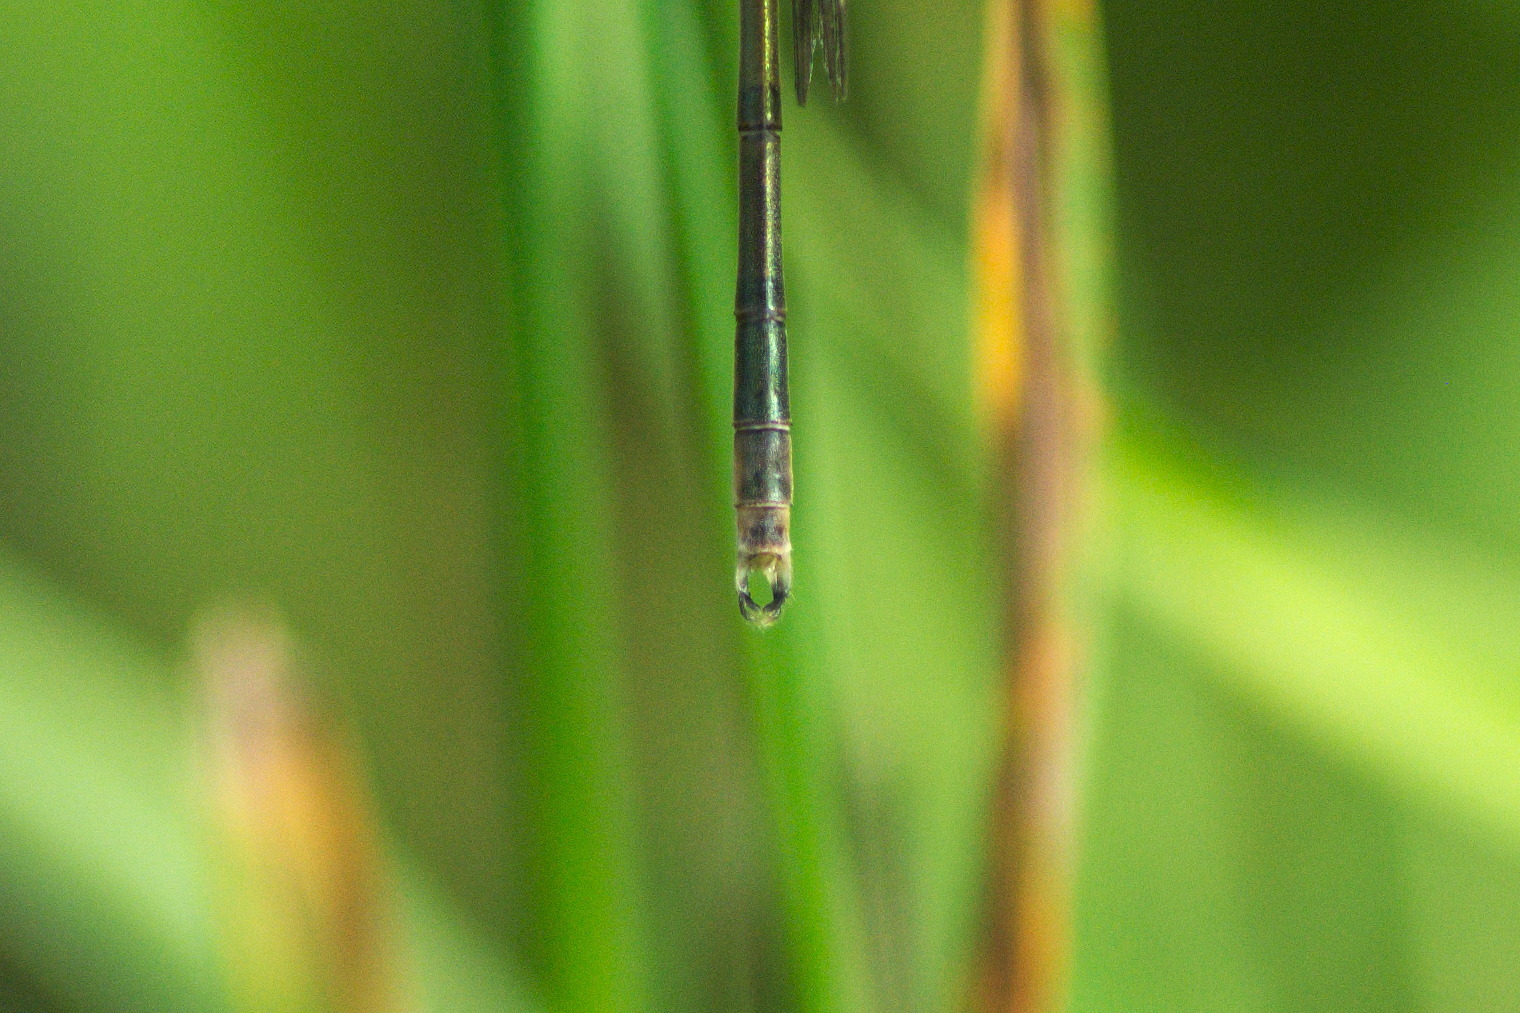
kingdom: Animalia
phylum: Arthropoda
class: Insecta
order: Odonata
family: Lestidae
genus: Lestes
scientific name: Lestes inaequalis
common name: Elegant spreadwing
